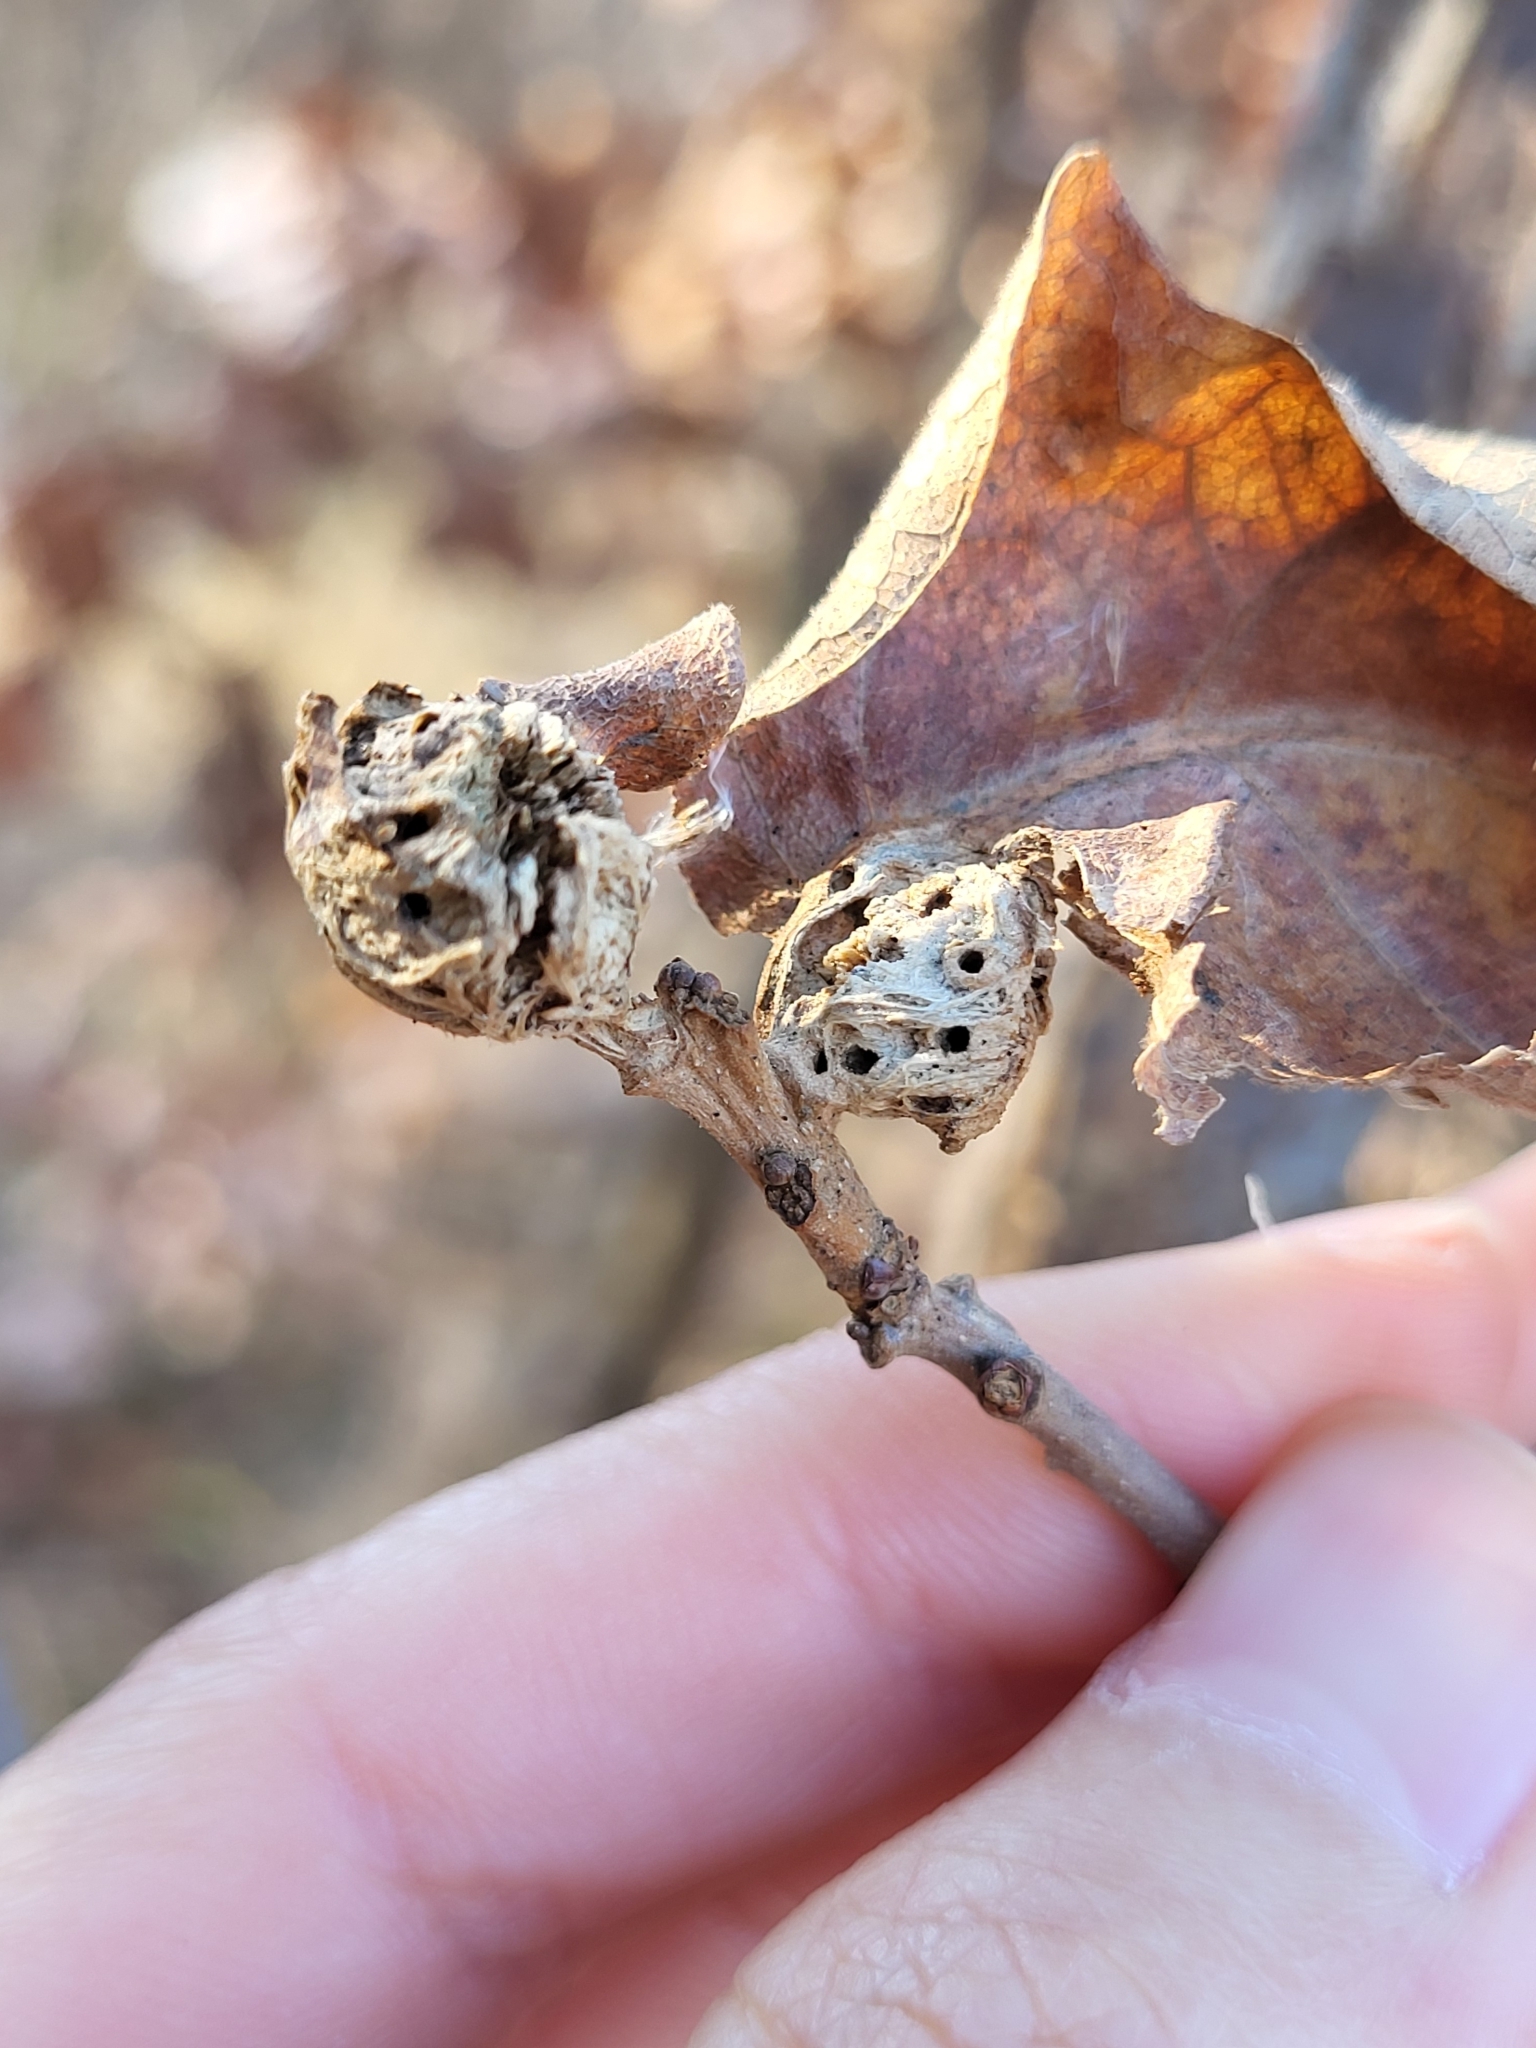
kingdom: Animalia
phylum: Arthropoda
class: Insecta
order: Hymenoptera
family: Cynipidae
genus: Andricus
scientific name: Andricus
